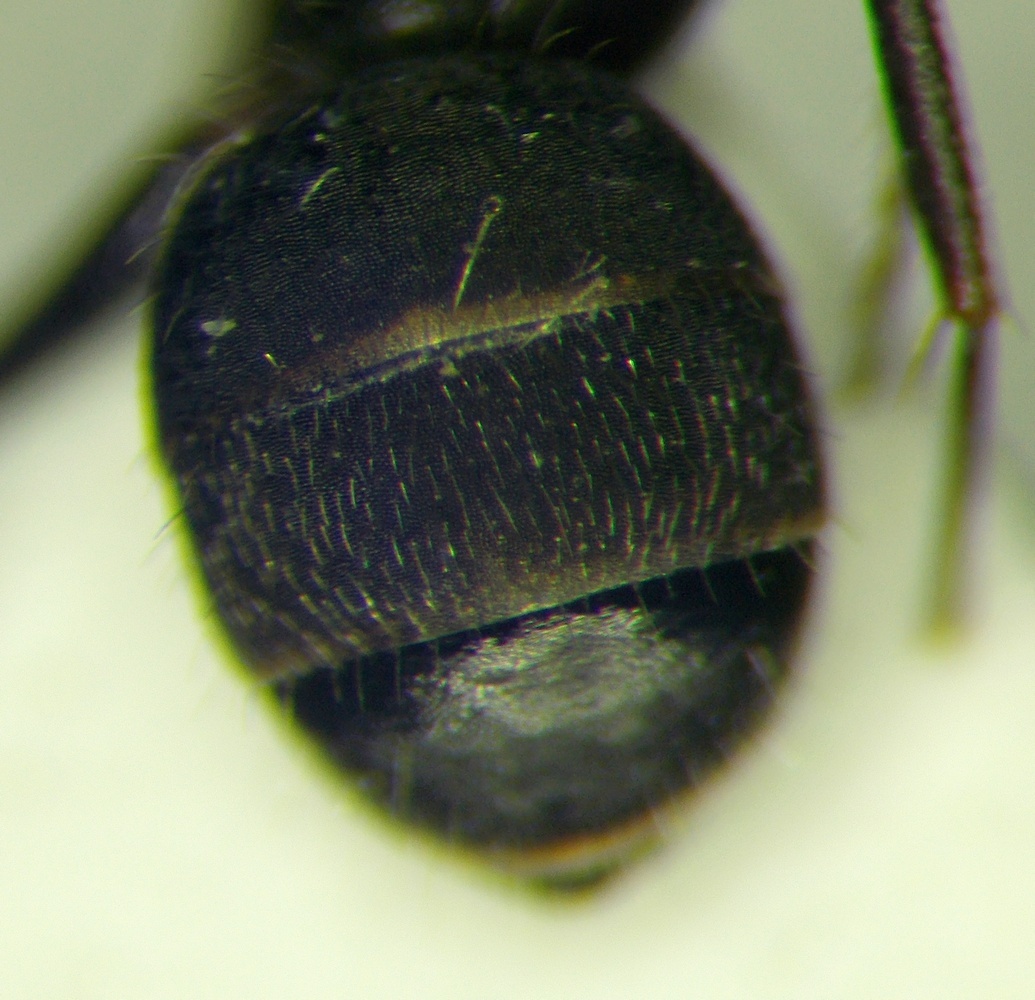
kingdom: Animalia
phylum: Arthropoda
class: Insecta
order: Hymenoptera
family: Formicidae
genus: Camponotus
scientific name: Camponotus libanicus
